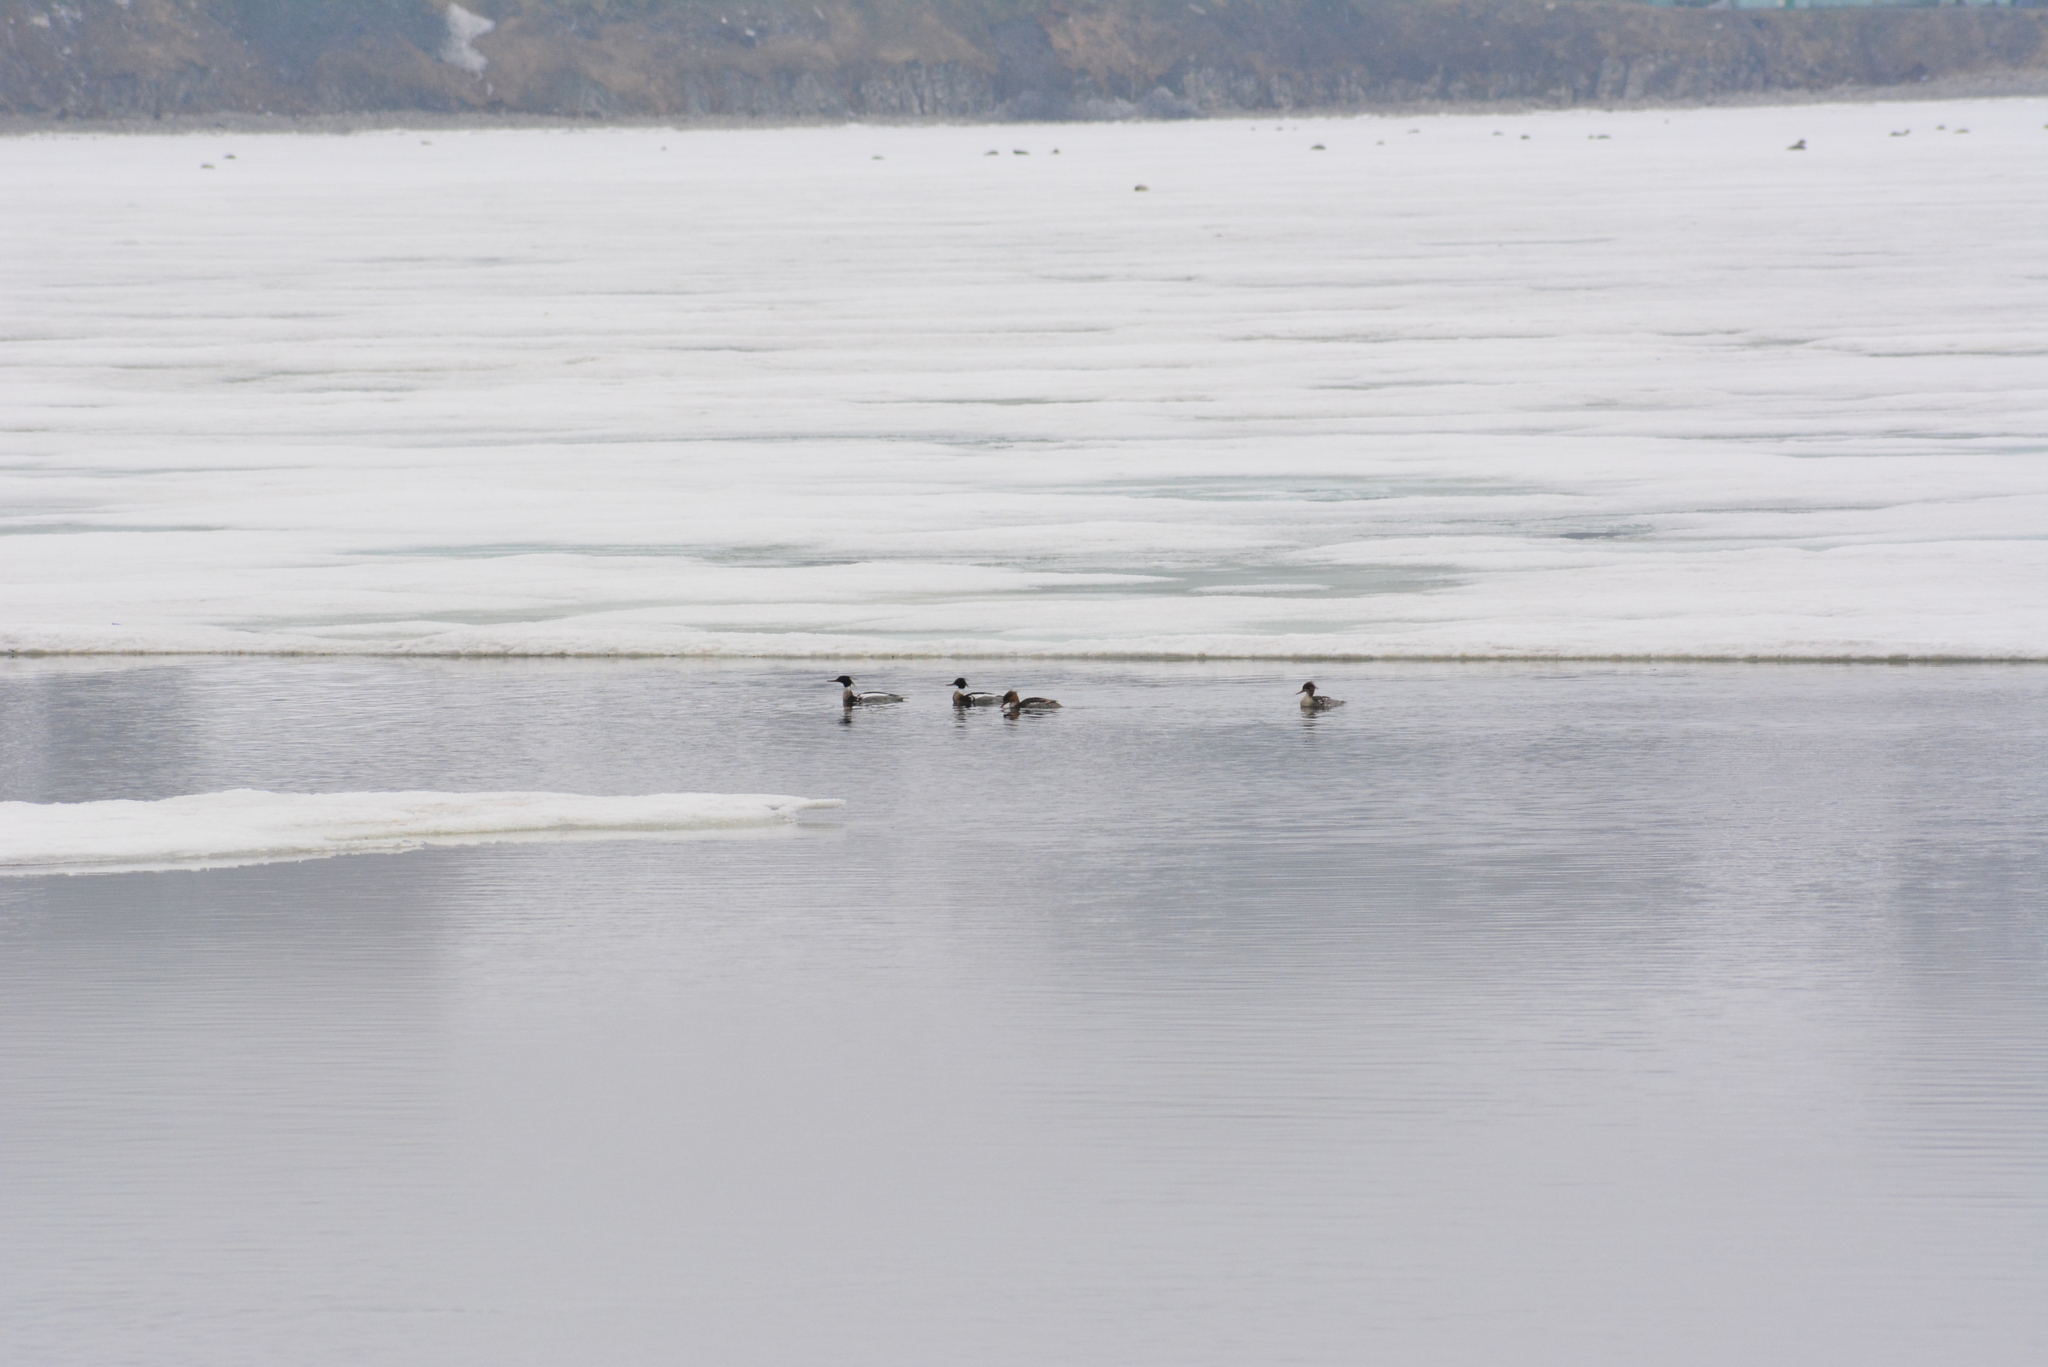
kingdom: Animalia
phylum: Chordata
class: Aves
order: Anseriformes
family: Anatidae
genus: Mergus
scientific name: Mergus serrator
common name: Red-breasted merganser
